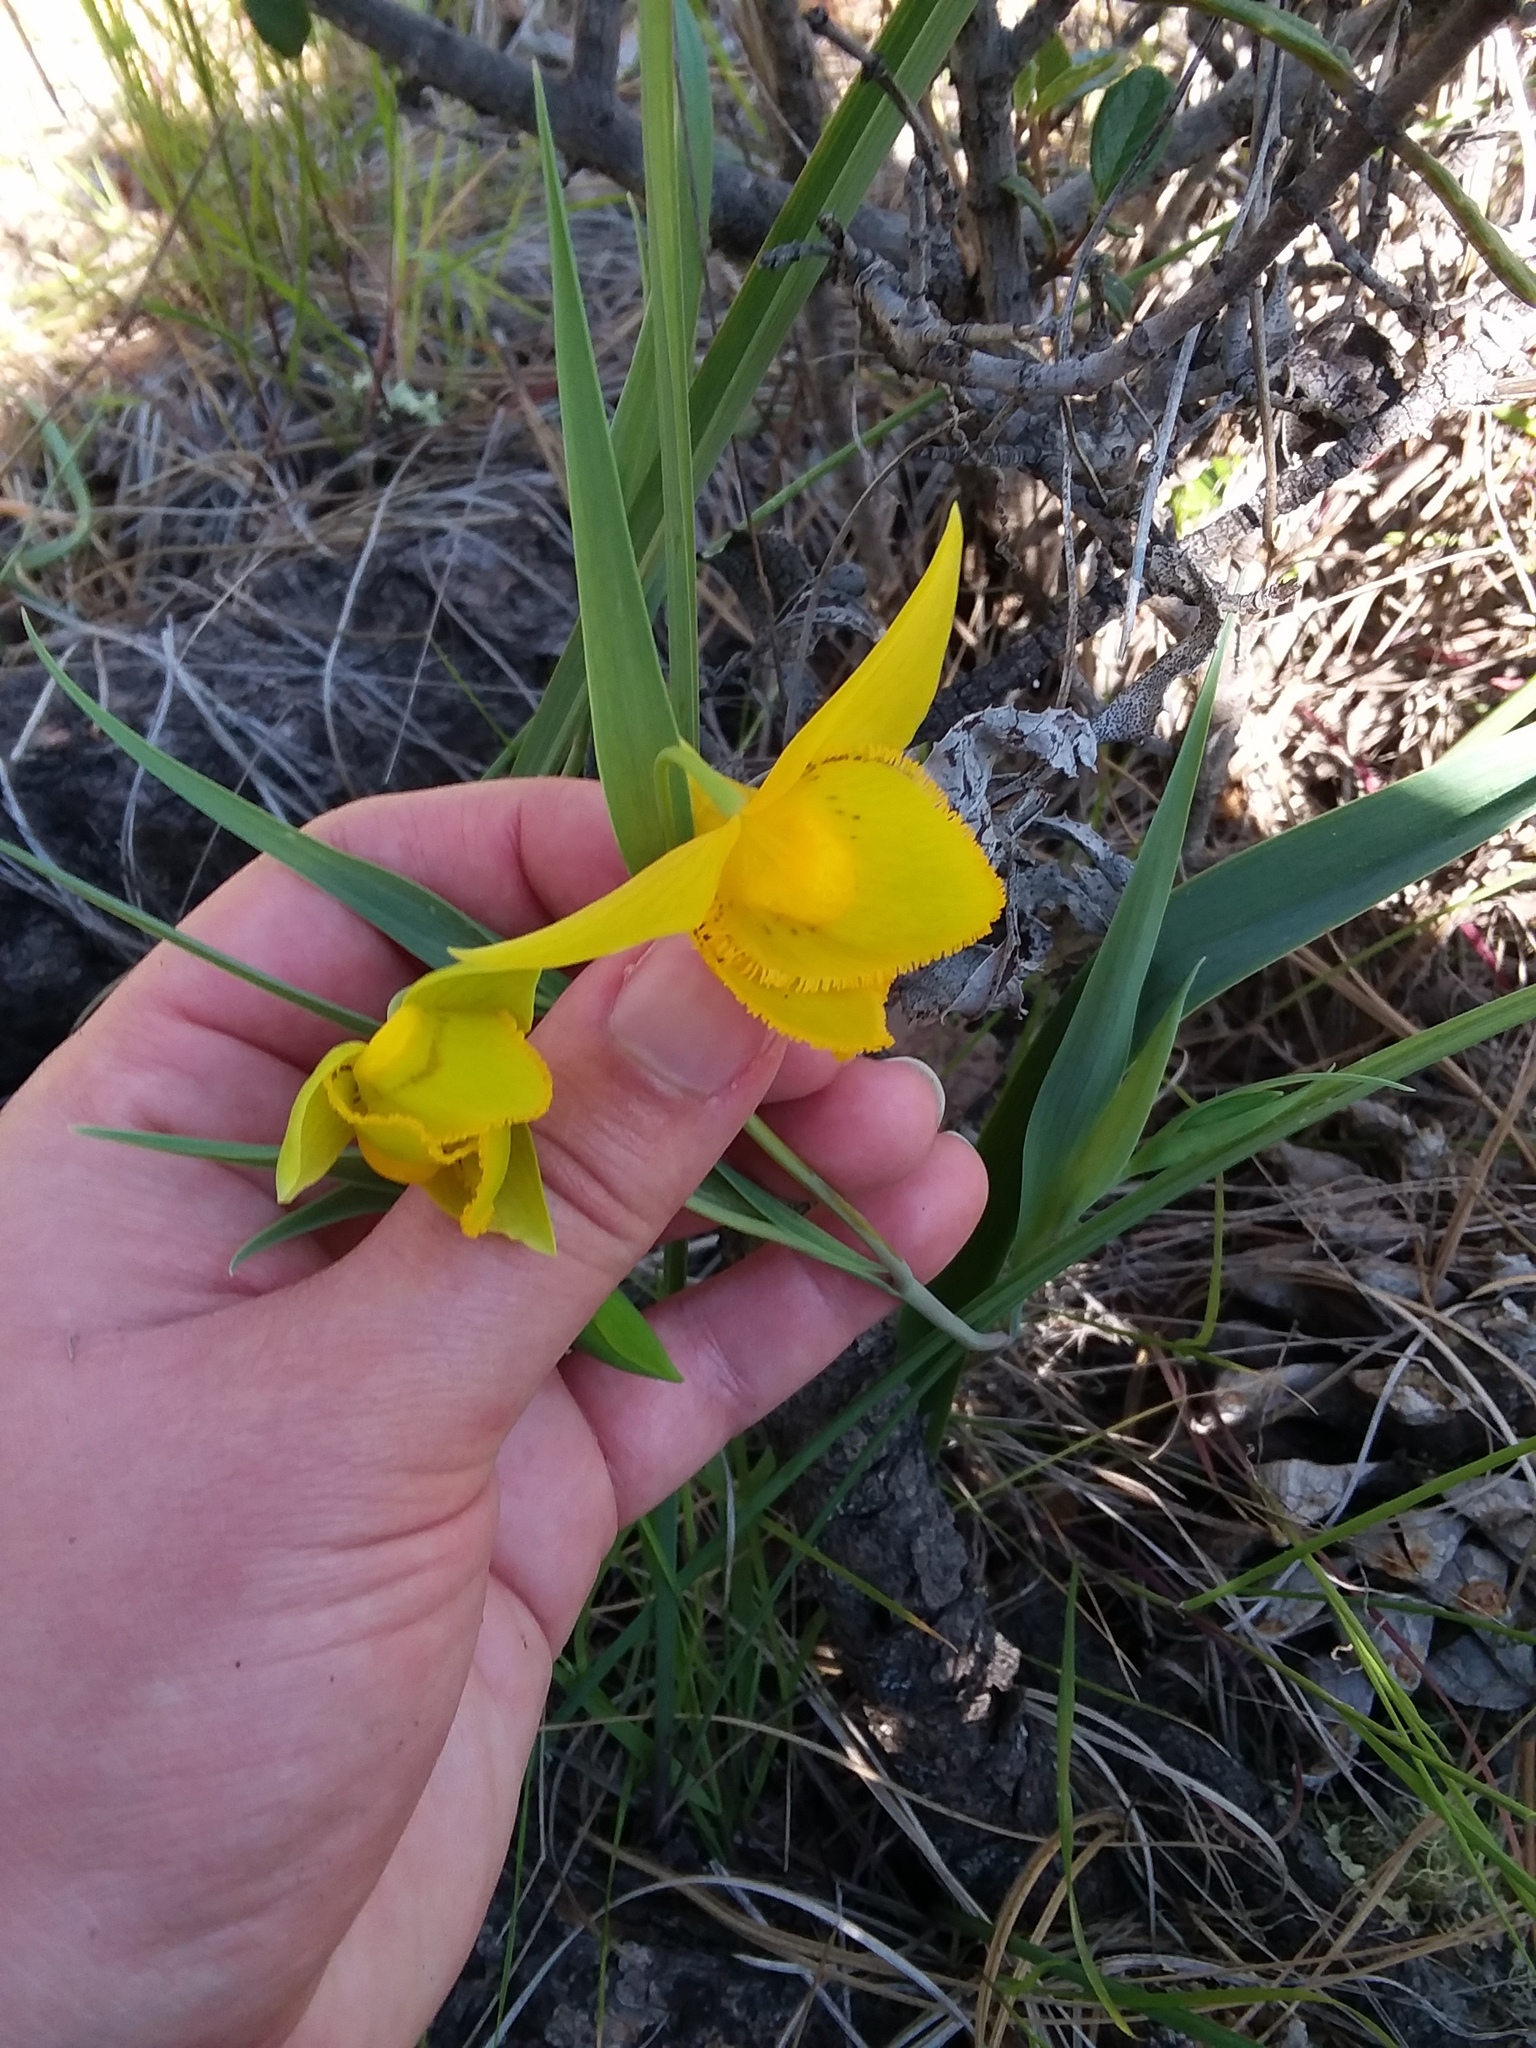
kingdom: Plantae
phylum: Tracheophyta
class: Liliopsida
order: Liliales
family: Liliaceae
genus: Calochortus
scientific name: Calochortus amabilis
